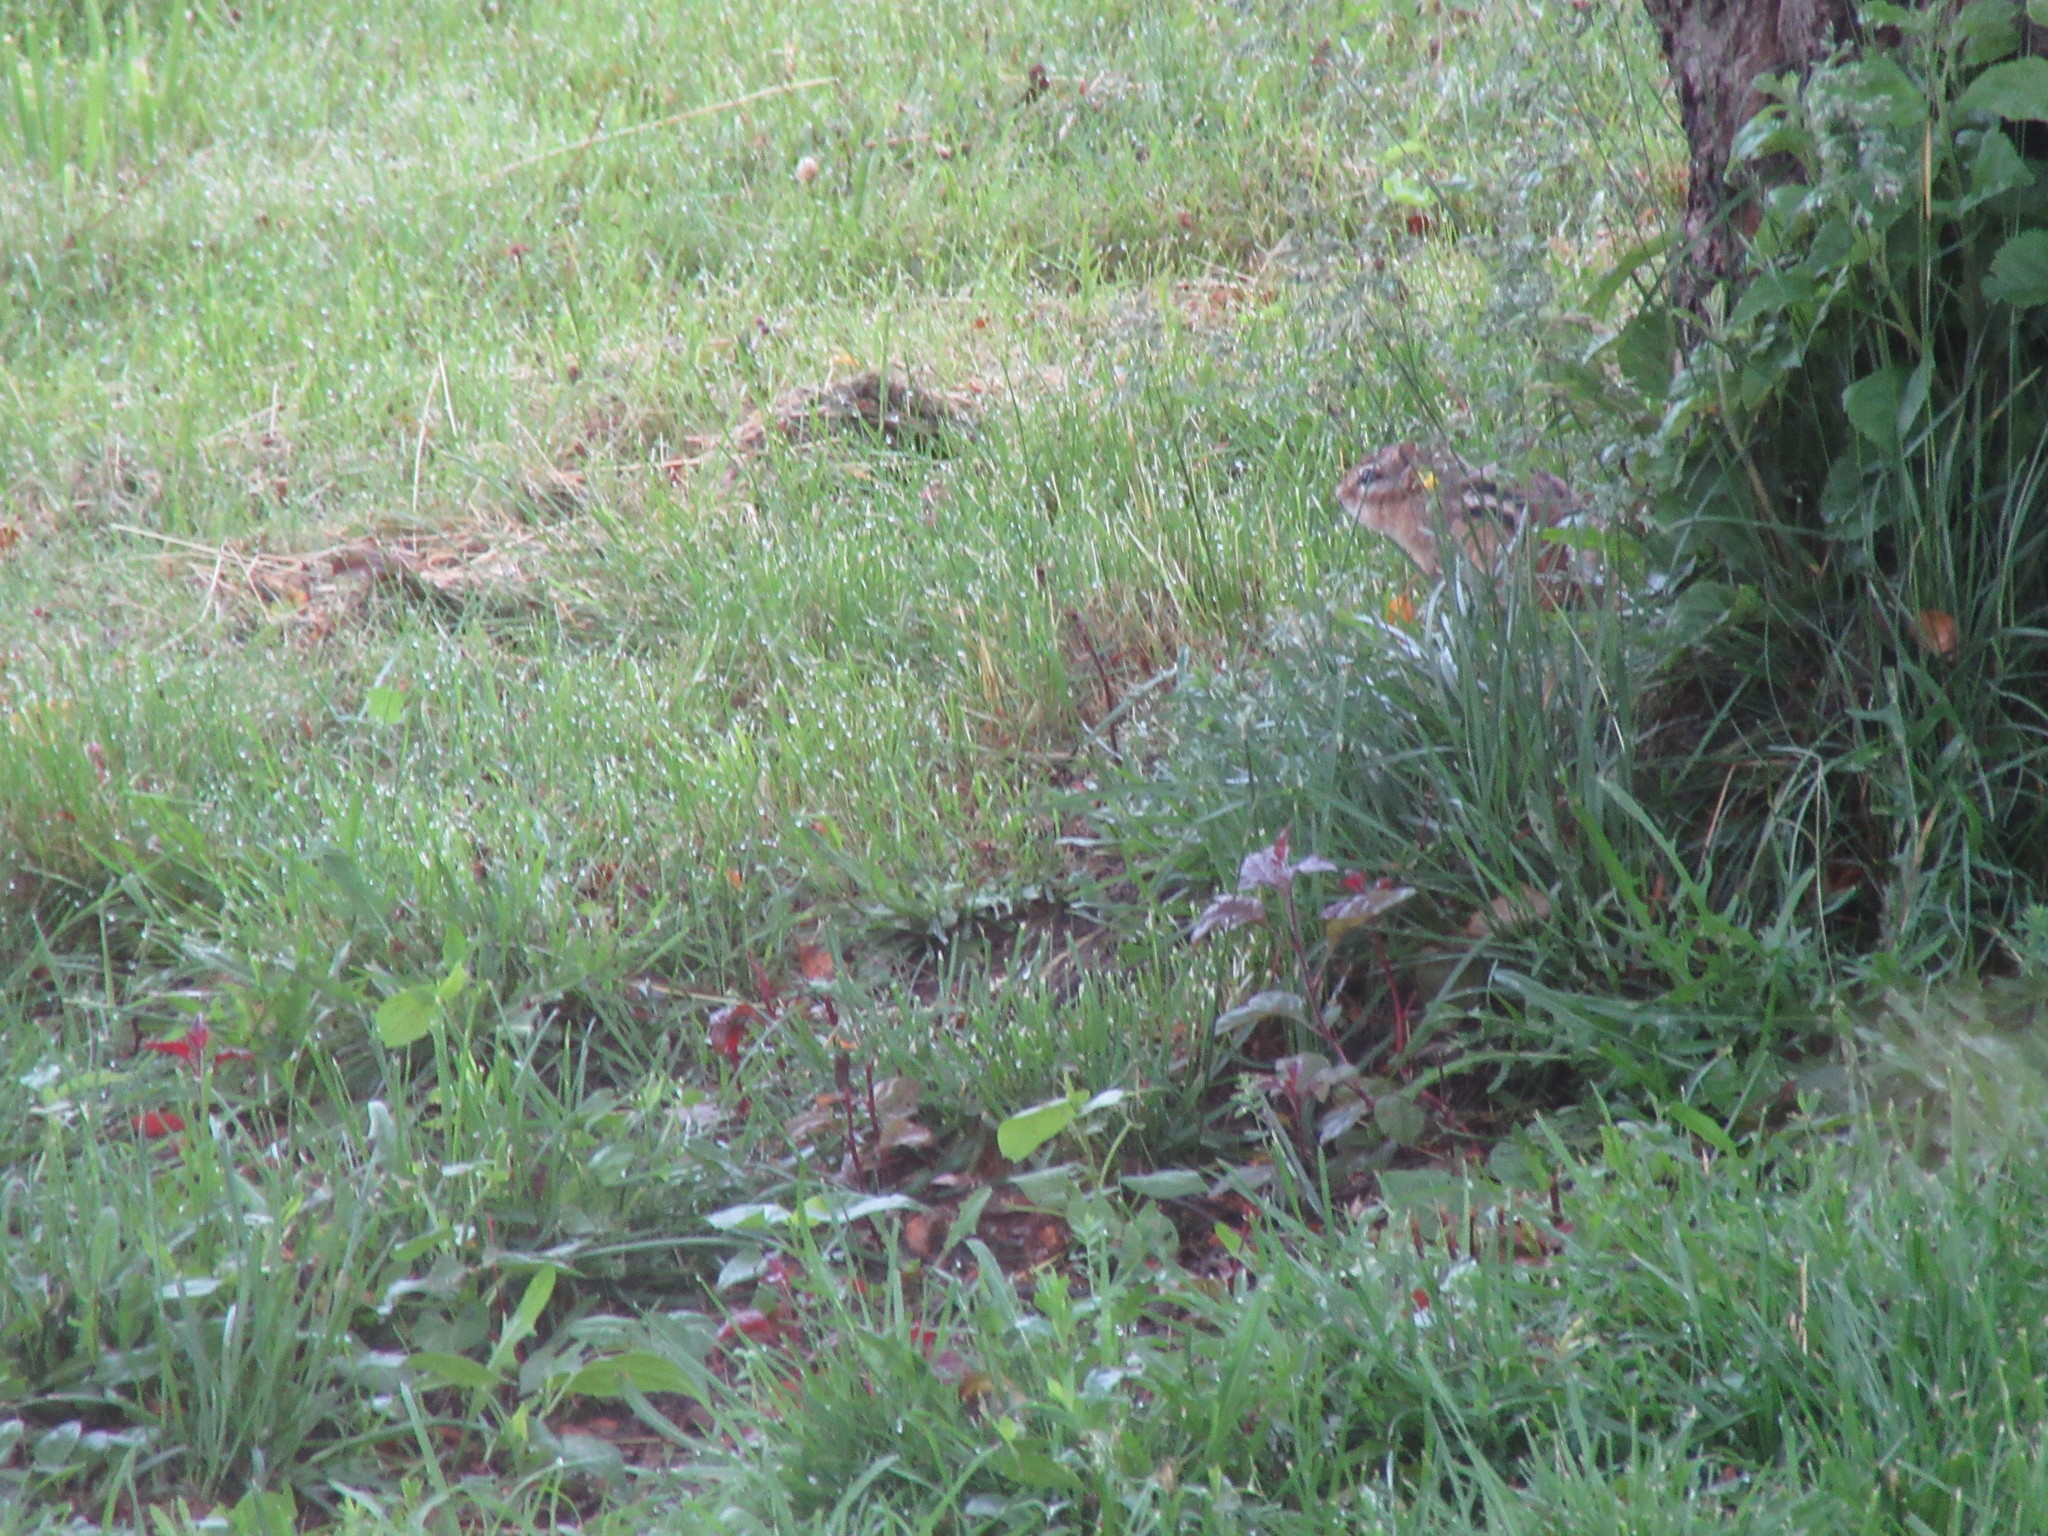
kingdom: Animalia
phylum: Chordata
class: Mammalia
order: Rodentia
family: Sciuridae
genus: Tamias
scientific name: Tamias striatus
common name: Eastern chipmunk
